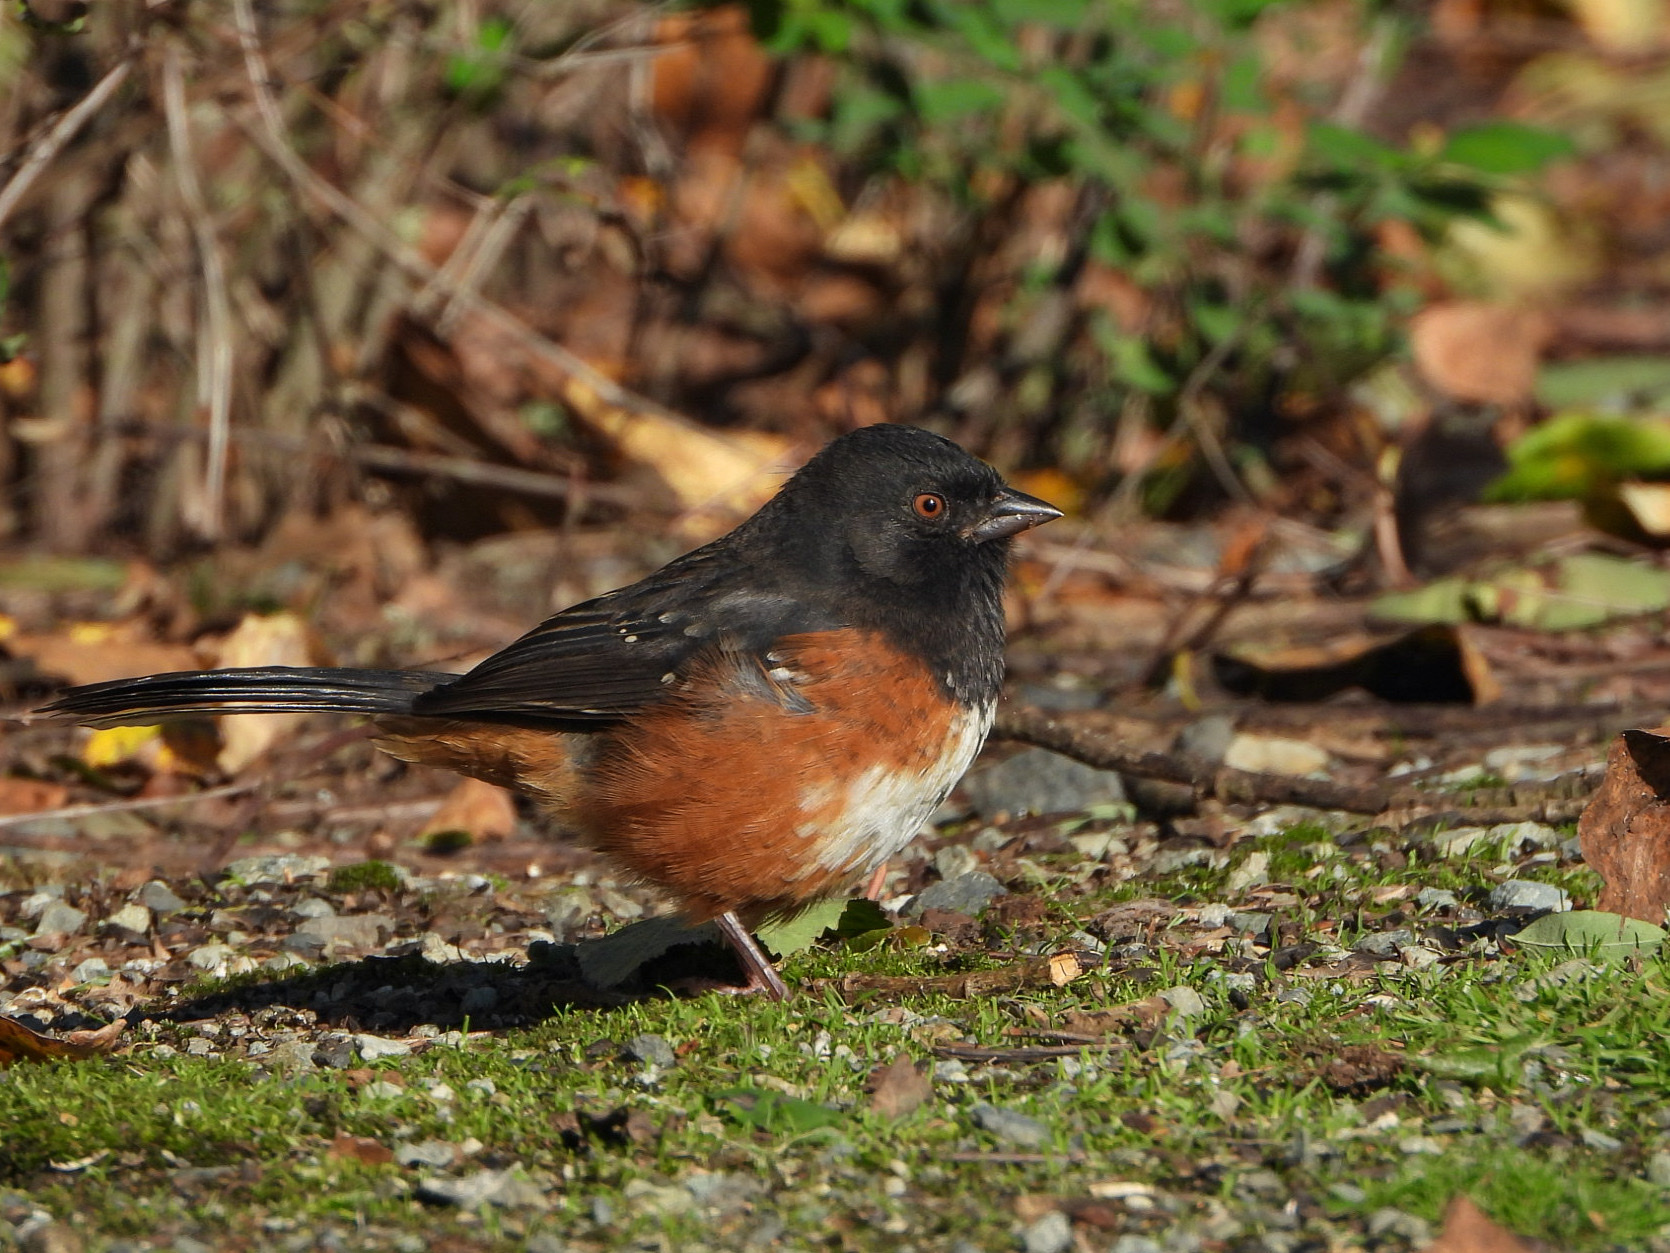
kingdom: Animalia
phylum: Chordata
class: Aves
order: Passeriformes
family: Passerellidae
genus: Pipilo
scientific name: Pipilo maculatus
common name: Spotted towhee
